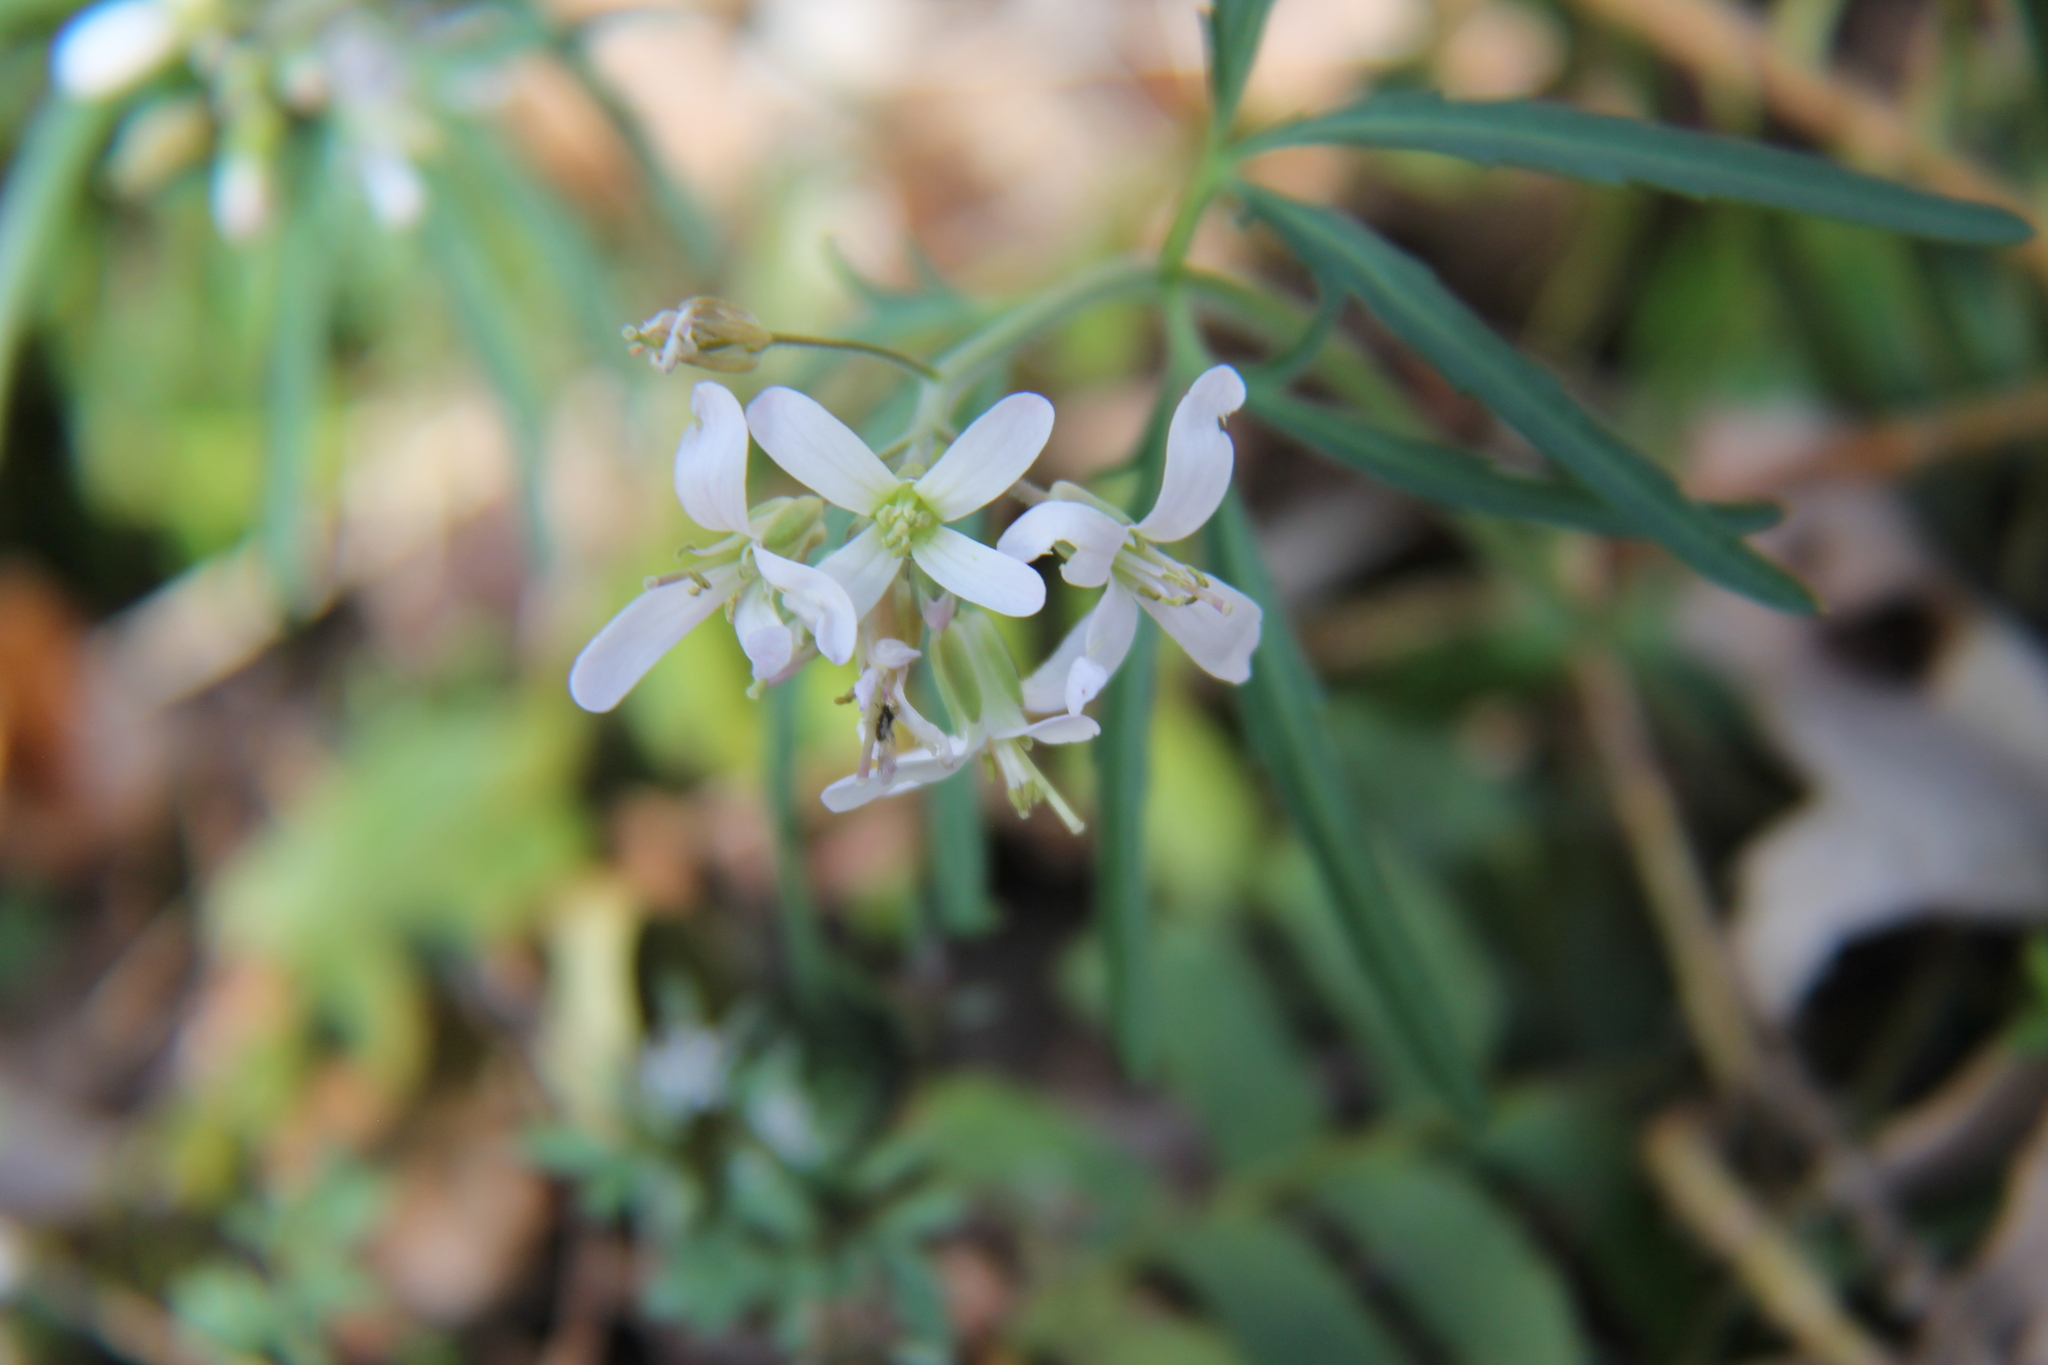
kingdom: Plantae
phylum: Tracheophyta
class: Magnoliopsida
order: Brassicales
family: Brassicaceae
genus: Cardamine
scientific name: Cardamine concatenata
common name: Cut-leaf toothcup
